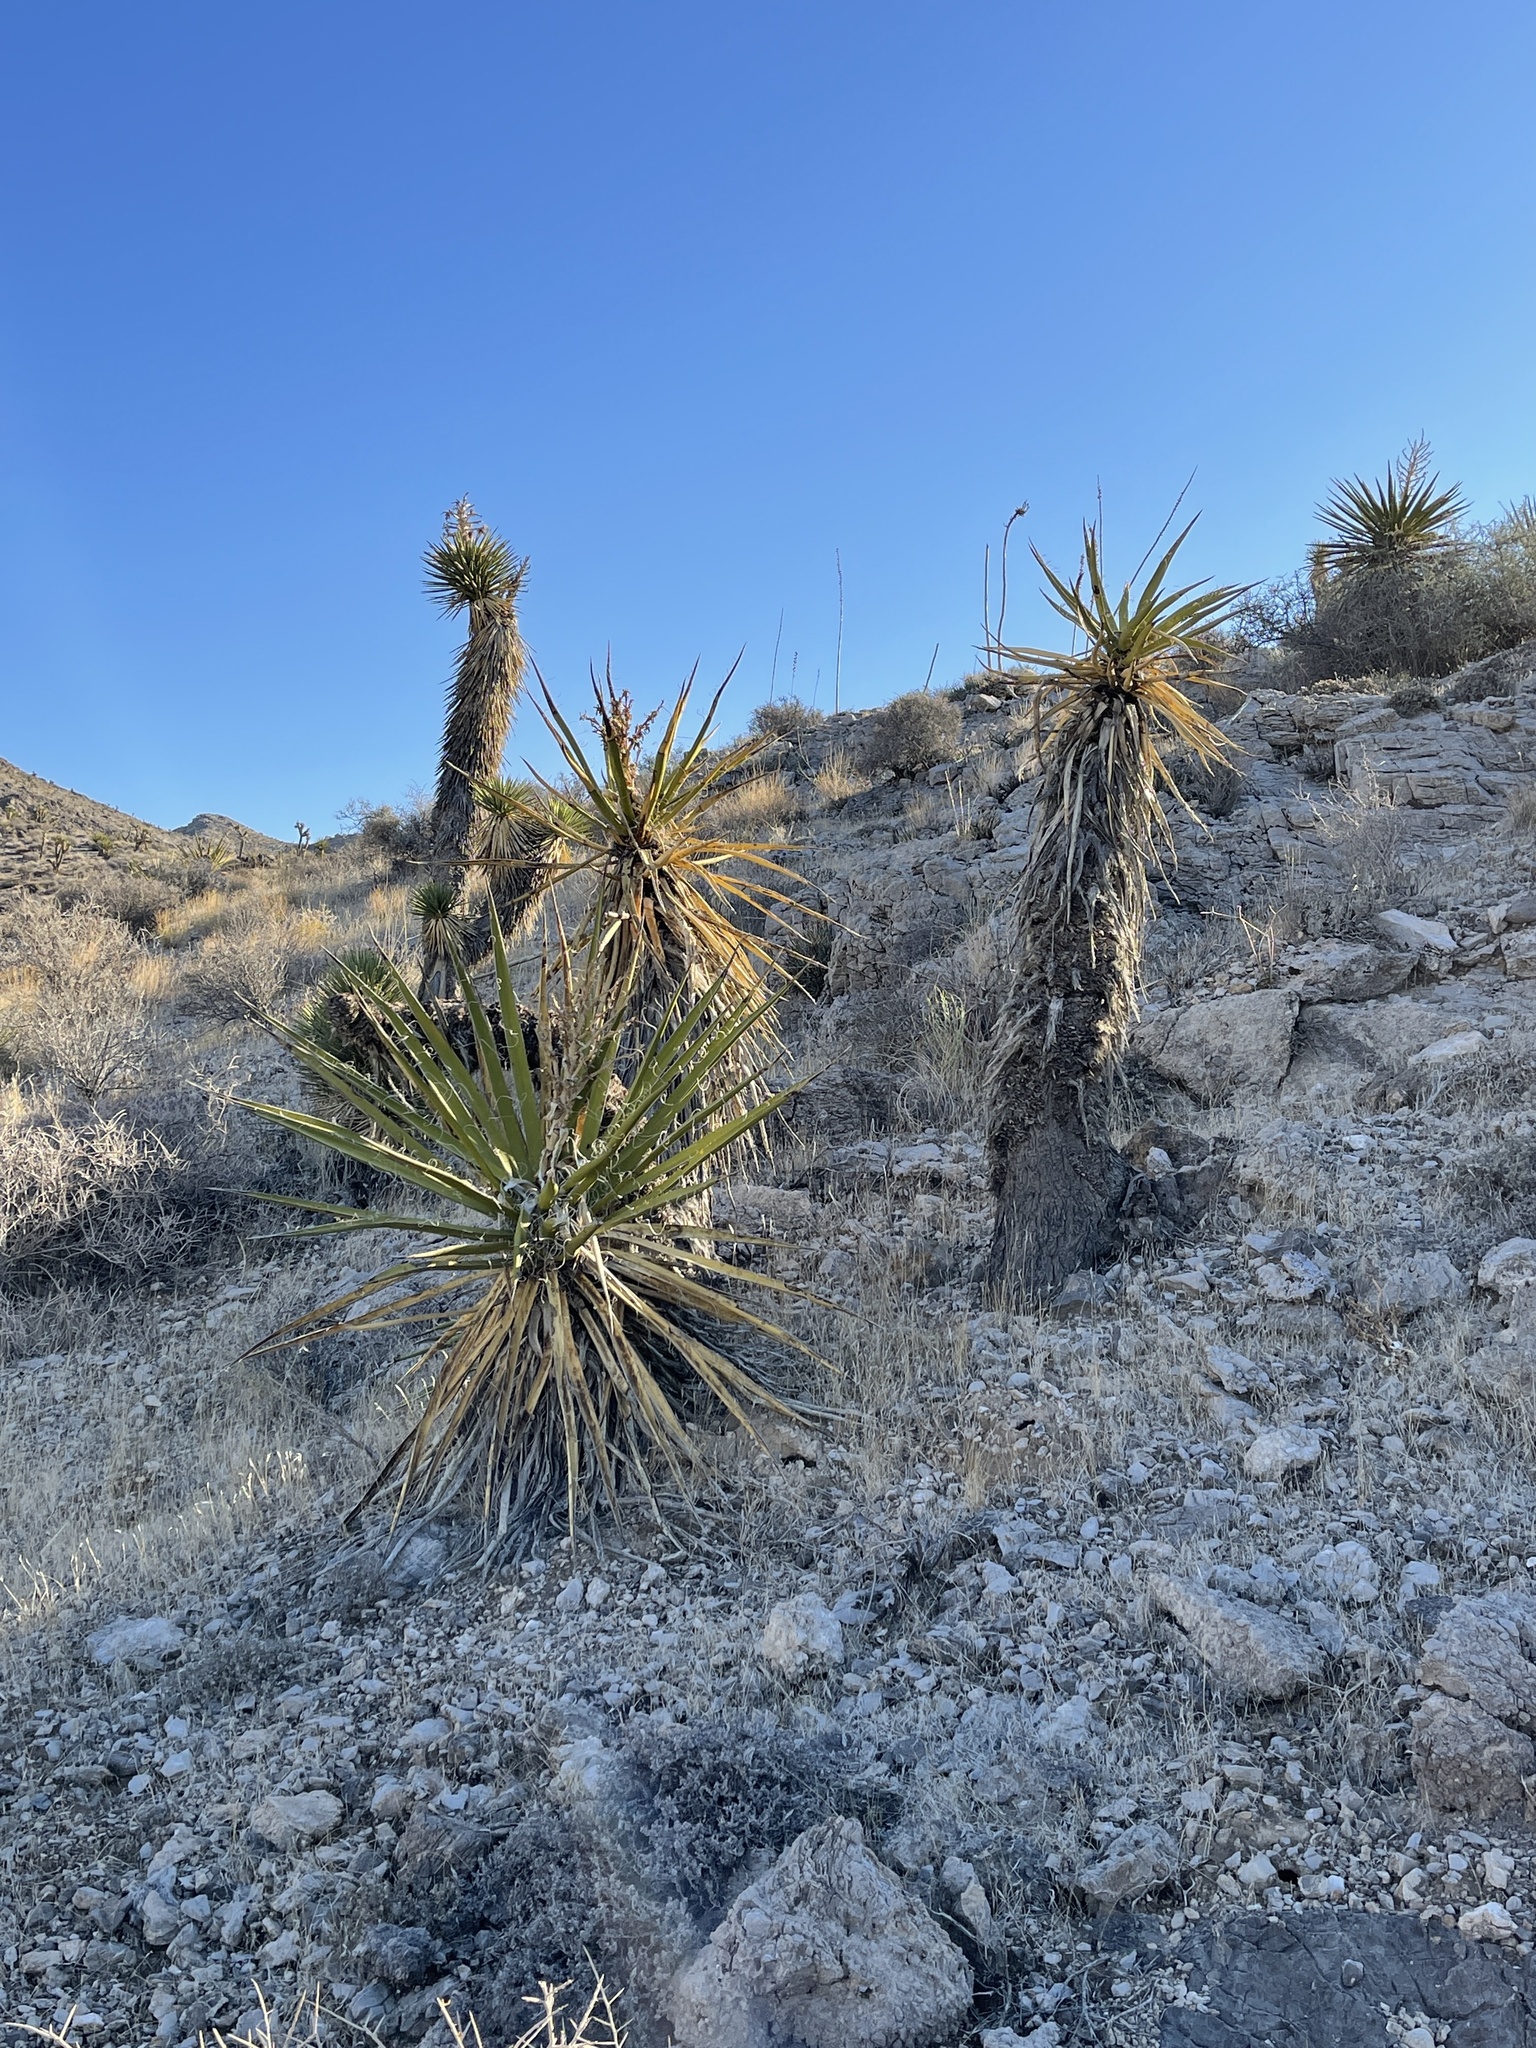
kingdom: Plantae
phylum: Tracheophyta
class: Liliopsida
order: Asparagales
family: Asparagaceae
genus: Yucca
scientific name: Yucca schidigera
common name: Mojave yucca
